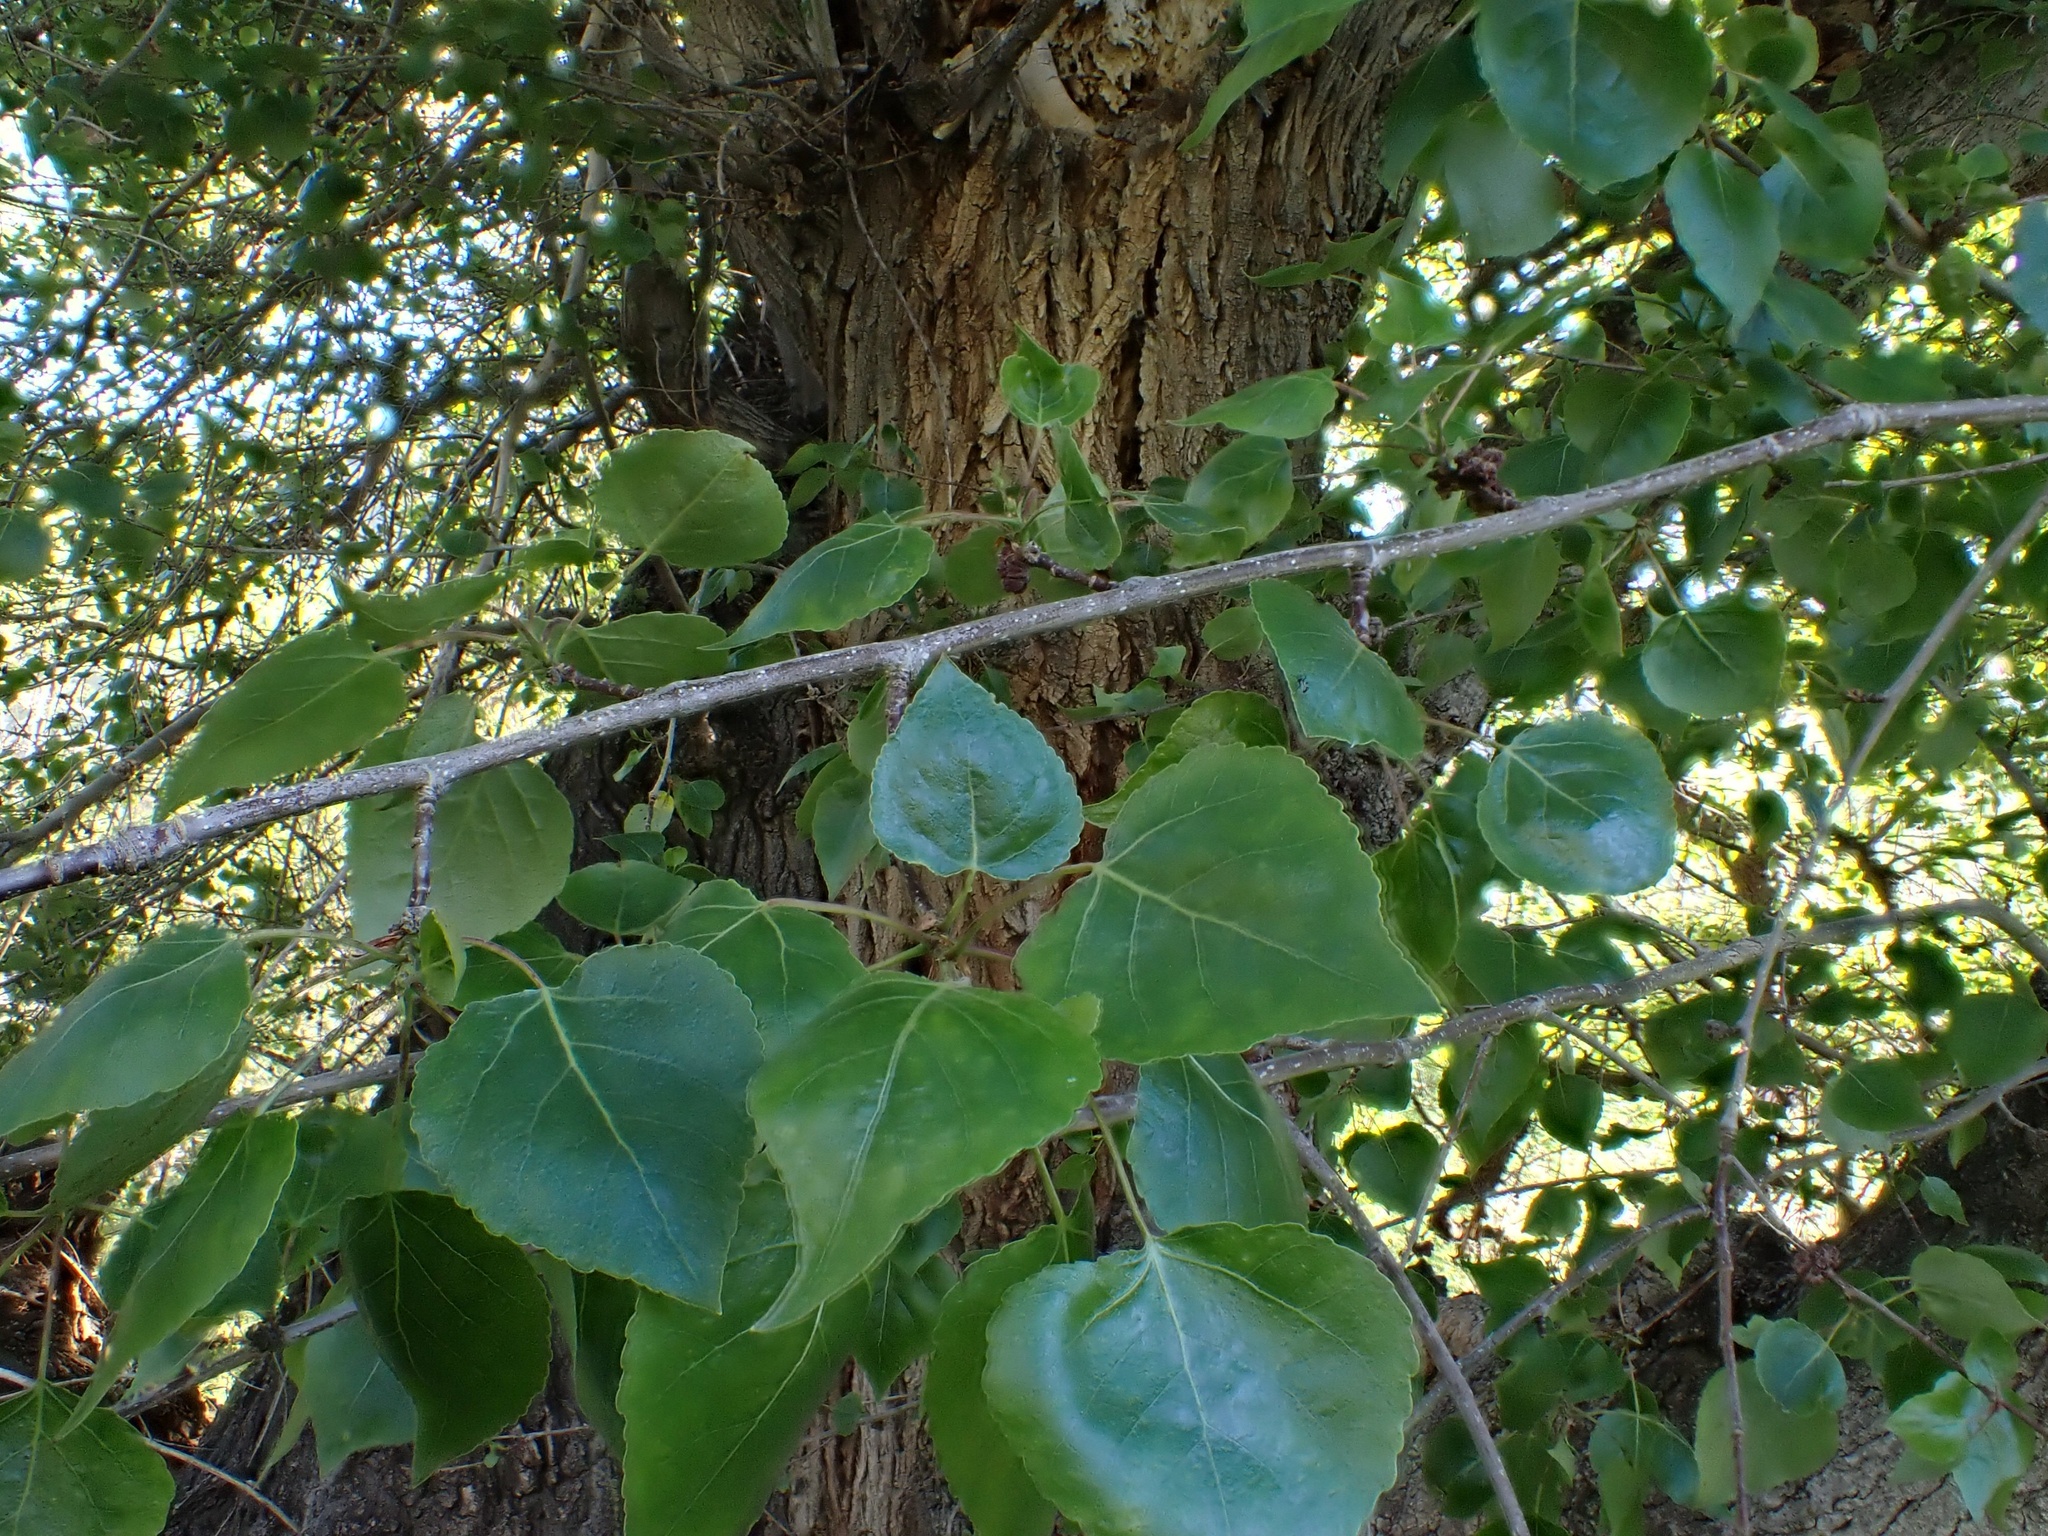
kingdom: Plantae
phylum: Tracheophyta
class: Magnoliopsida
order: Malpighiales
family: Salicaceae
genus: Populus
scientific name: Populus fremontii
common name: Fremont's cottonwood
